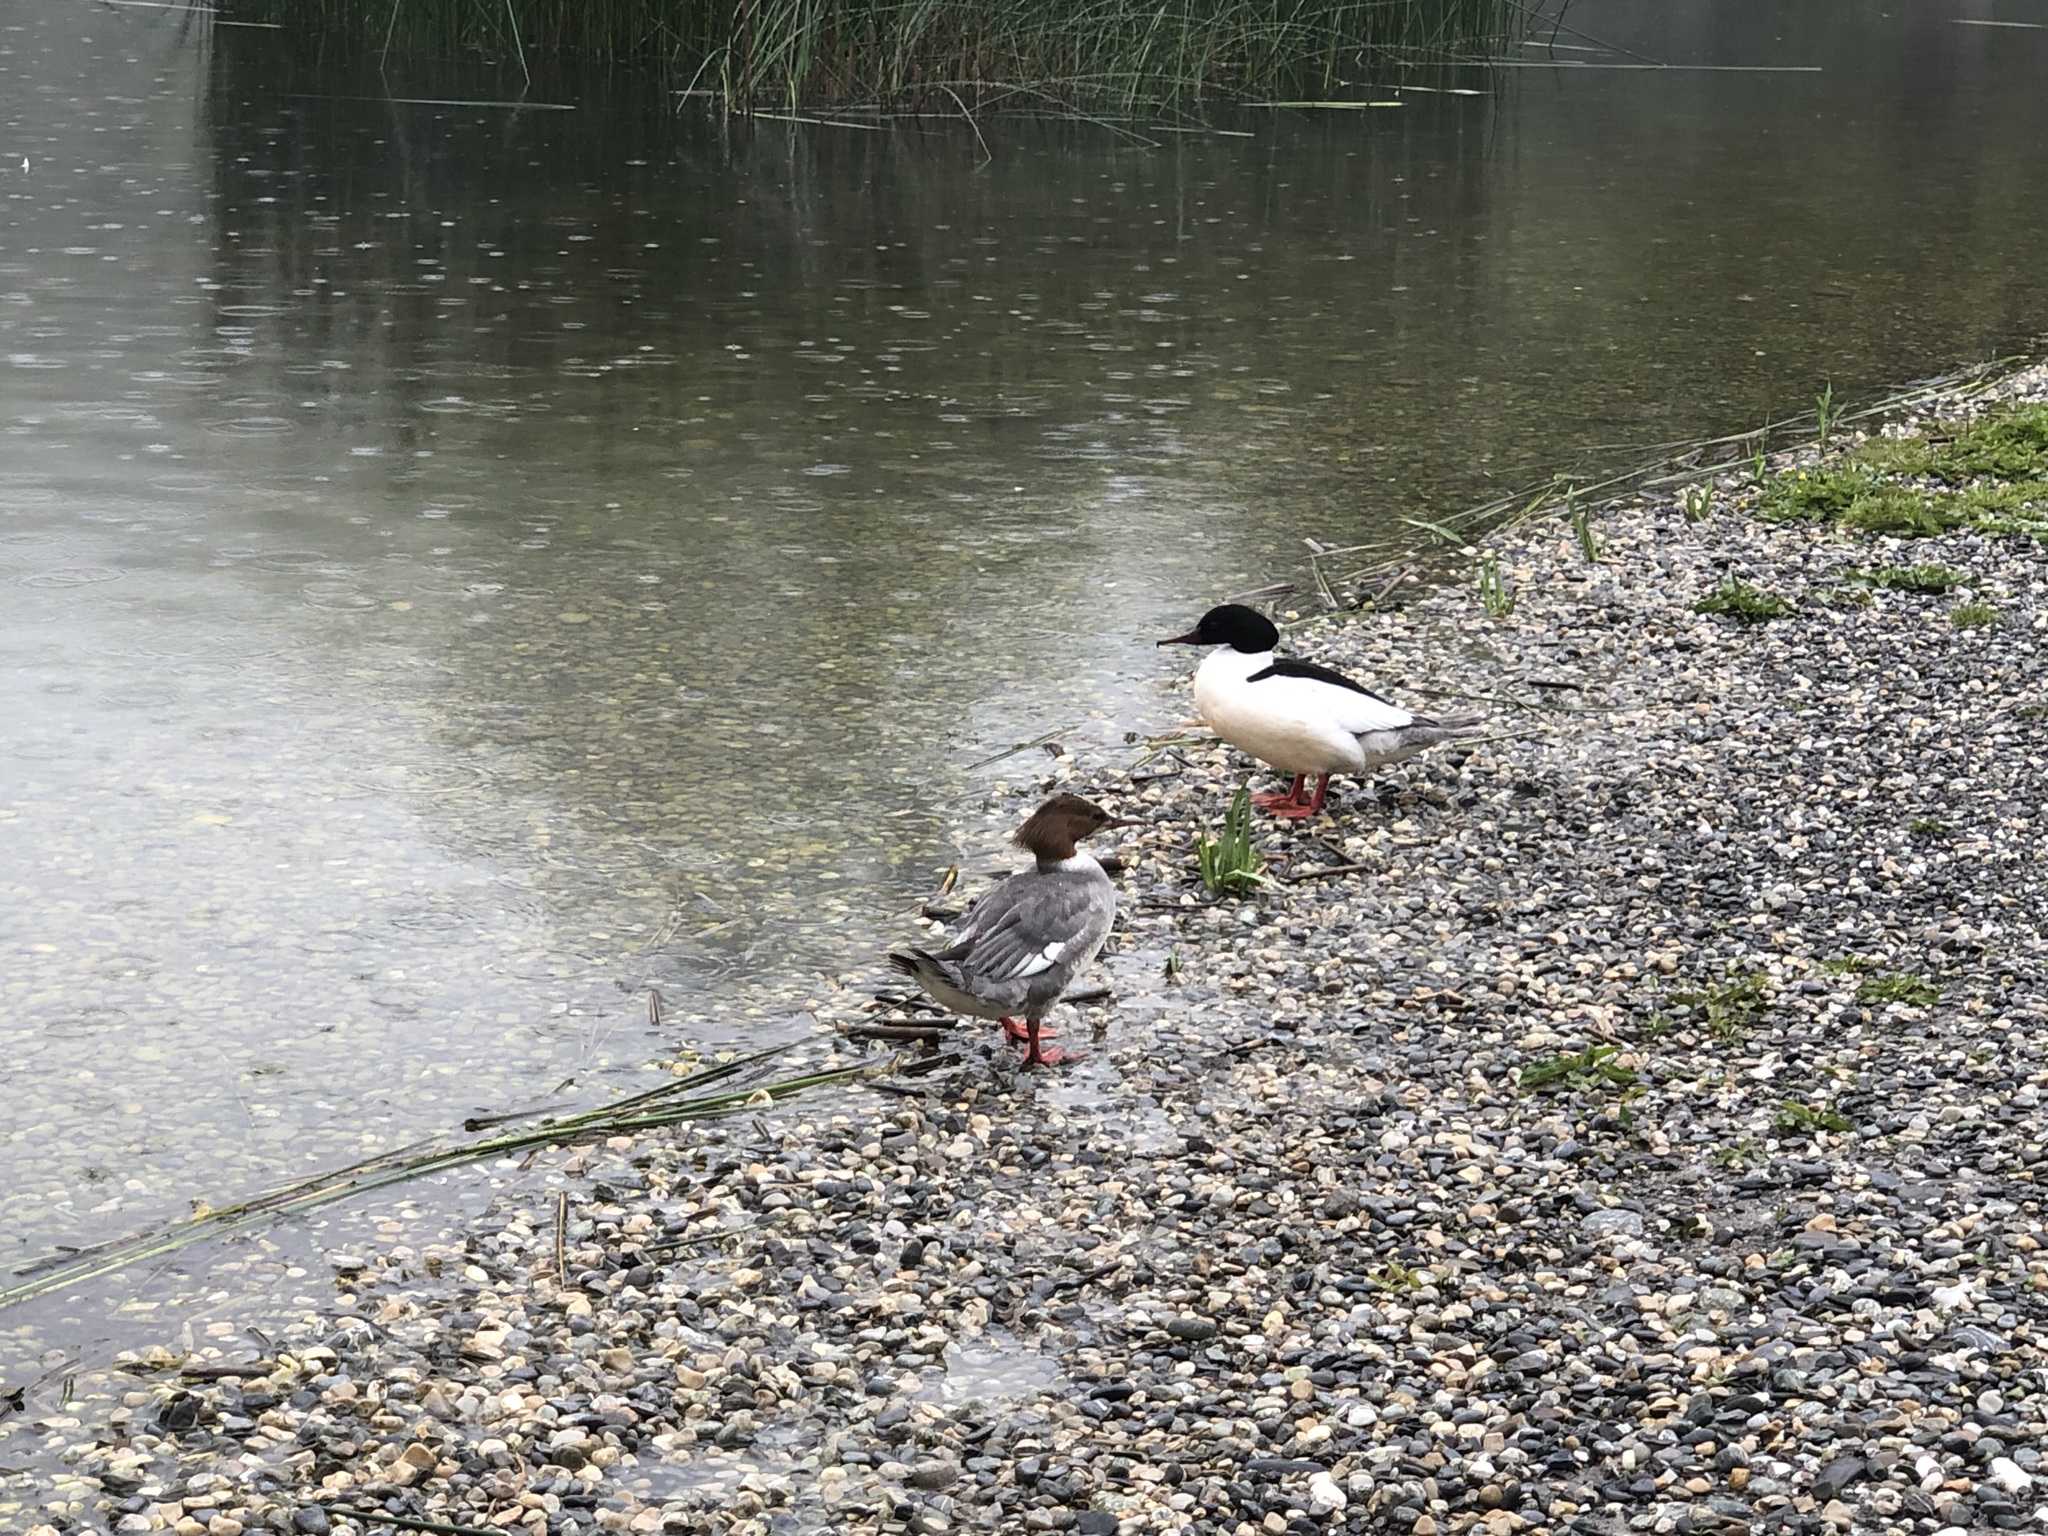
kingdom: Animalia
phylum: Chordata
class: Aves
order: Anseriformes
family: Anatidae
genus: Mergus
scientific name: Mergus merganser
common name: Common merganser
